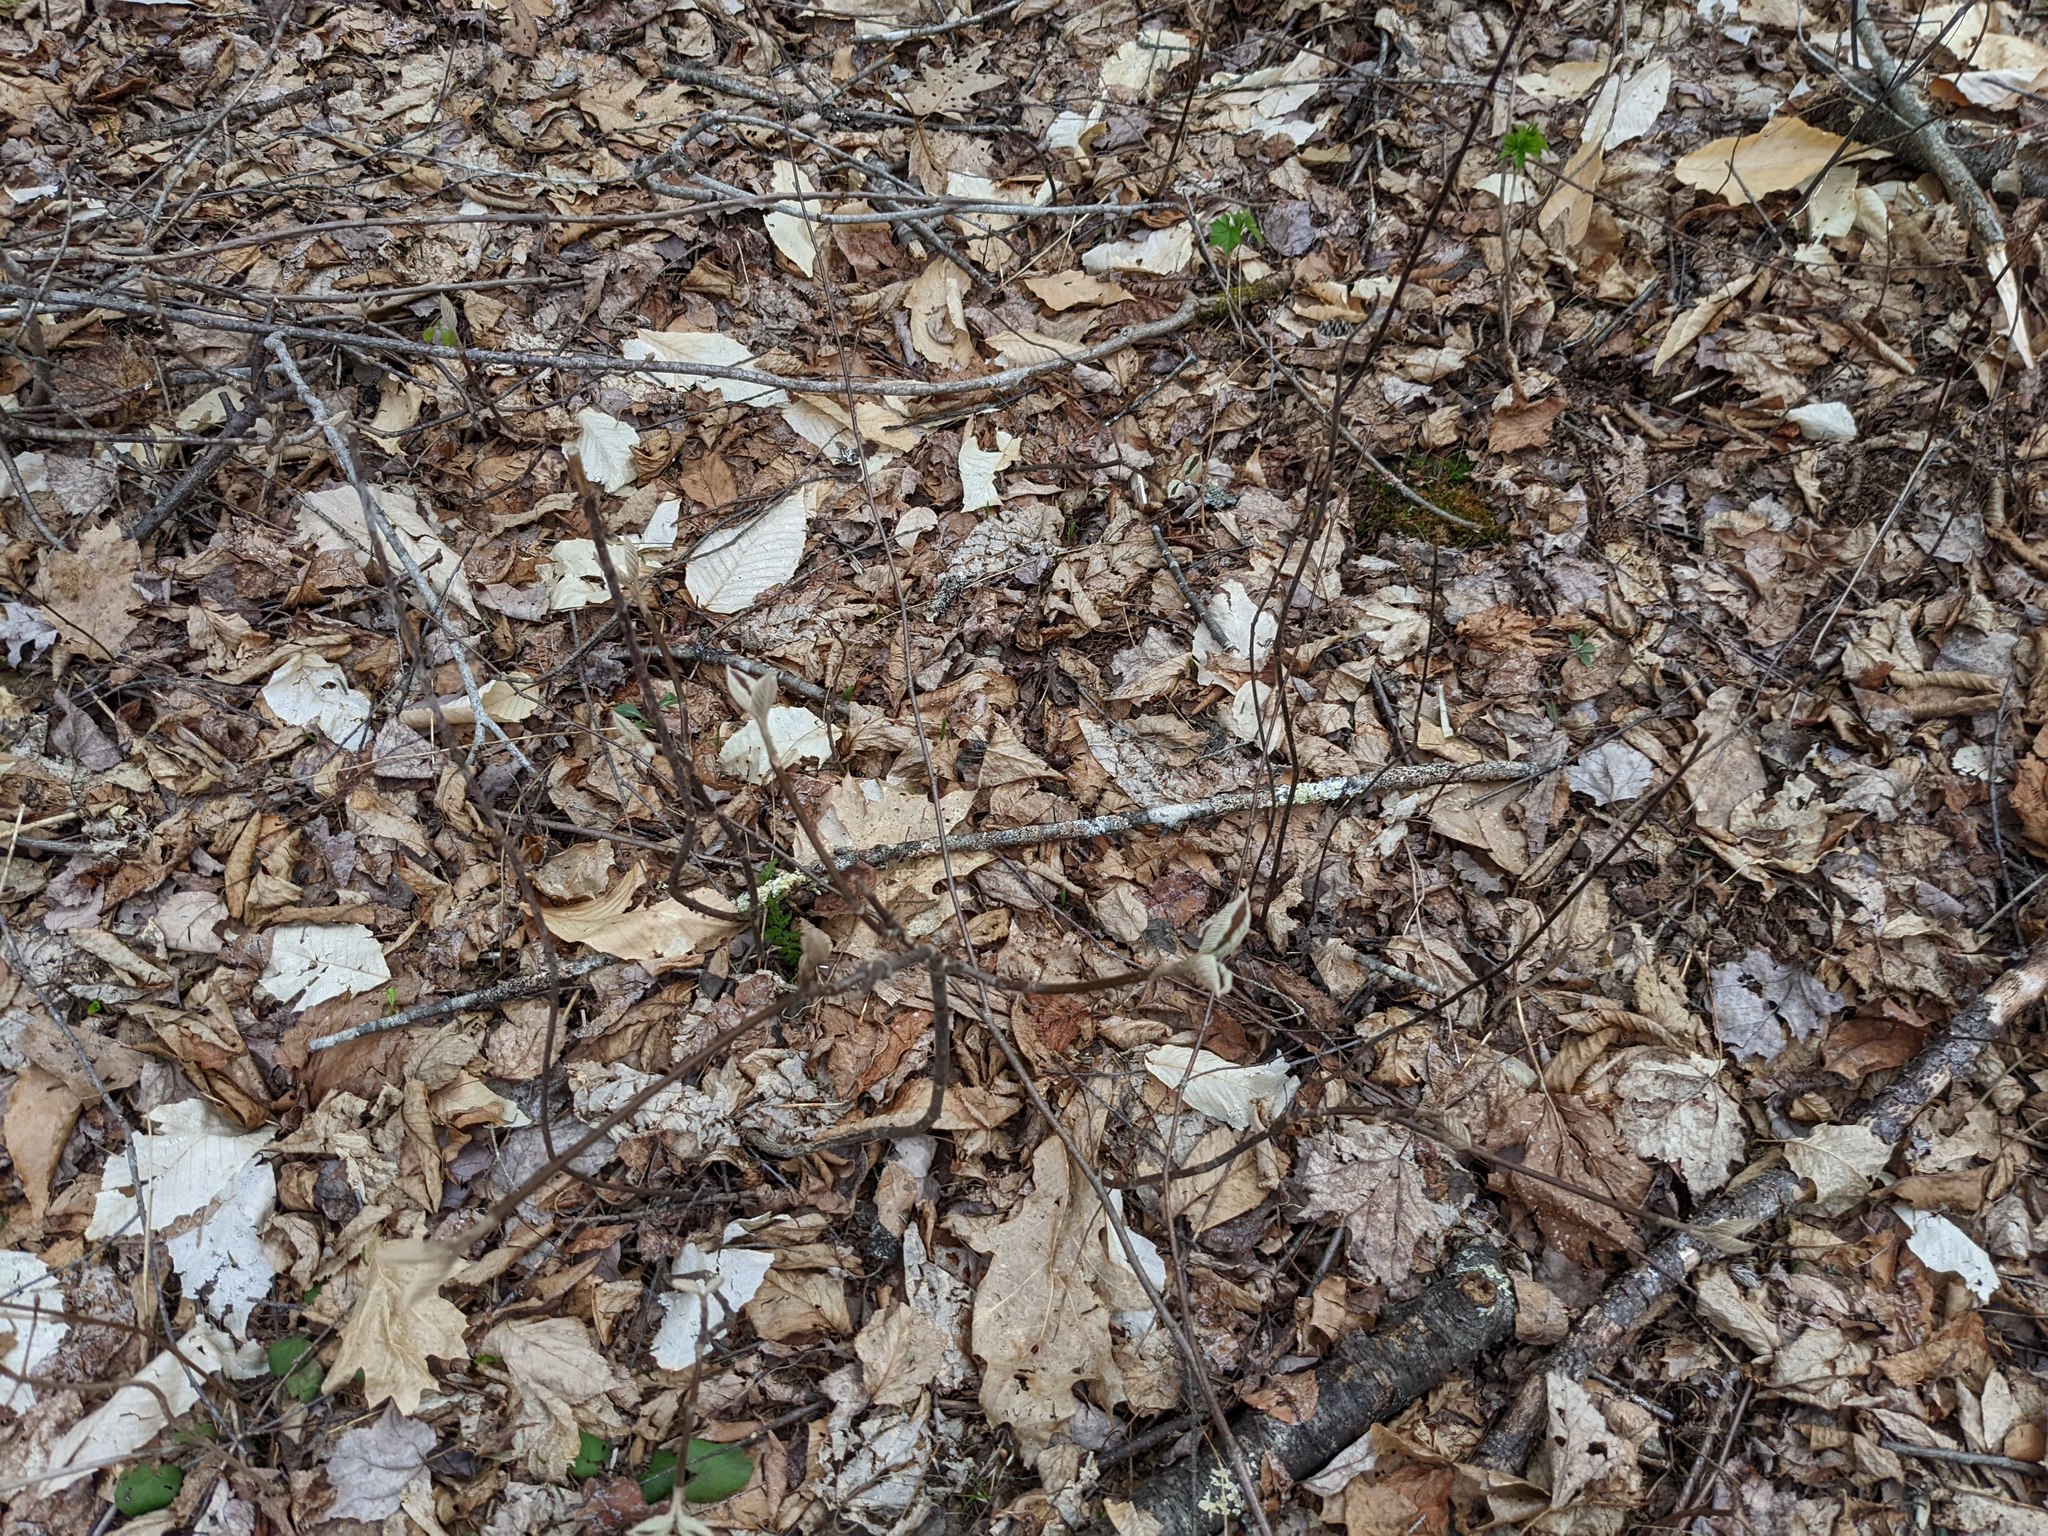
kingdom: Plantae
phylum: Tracheophyta
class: Magnoliopsida
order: Dipsacales
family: Viburnaceae
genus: Viburnum
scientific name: Viburnum lantanoides
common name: Hobblebush
